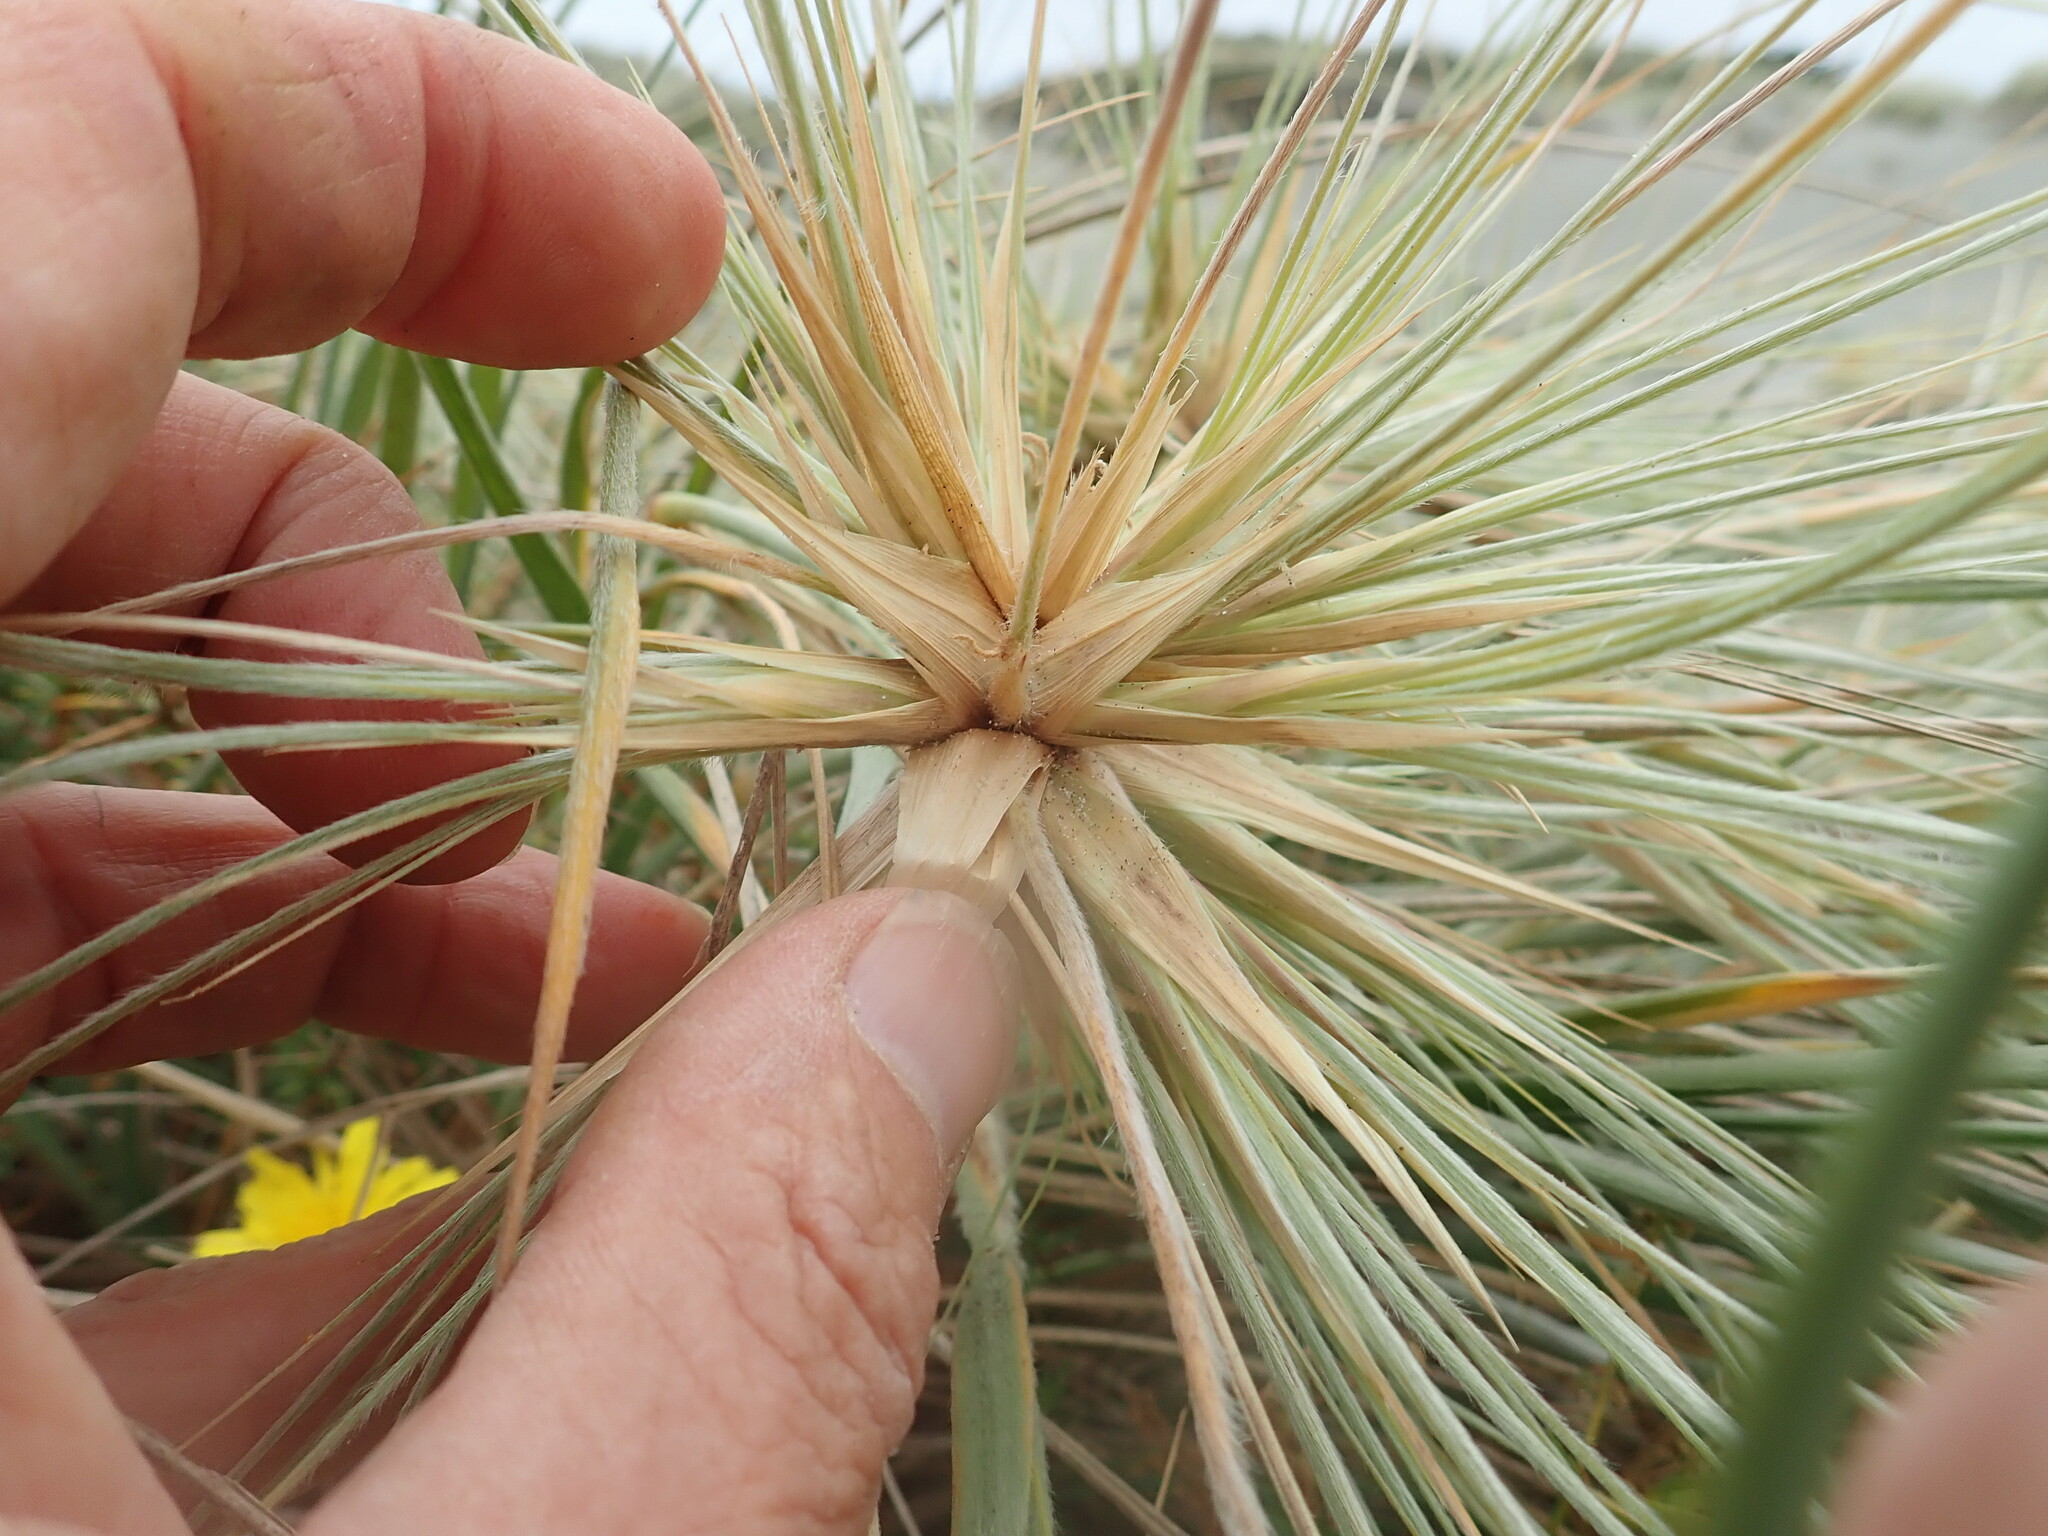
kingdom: Plantae
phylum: Tracheophyta
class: Liliopsida
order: Poales
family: Poaceae
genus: Spinifex
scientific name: Spinifex sericeus
